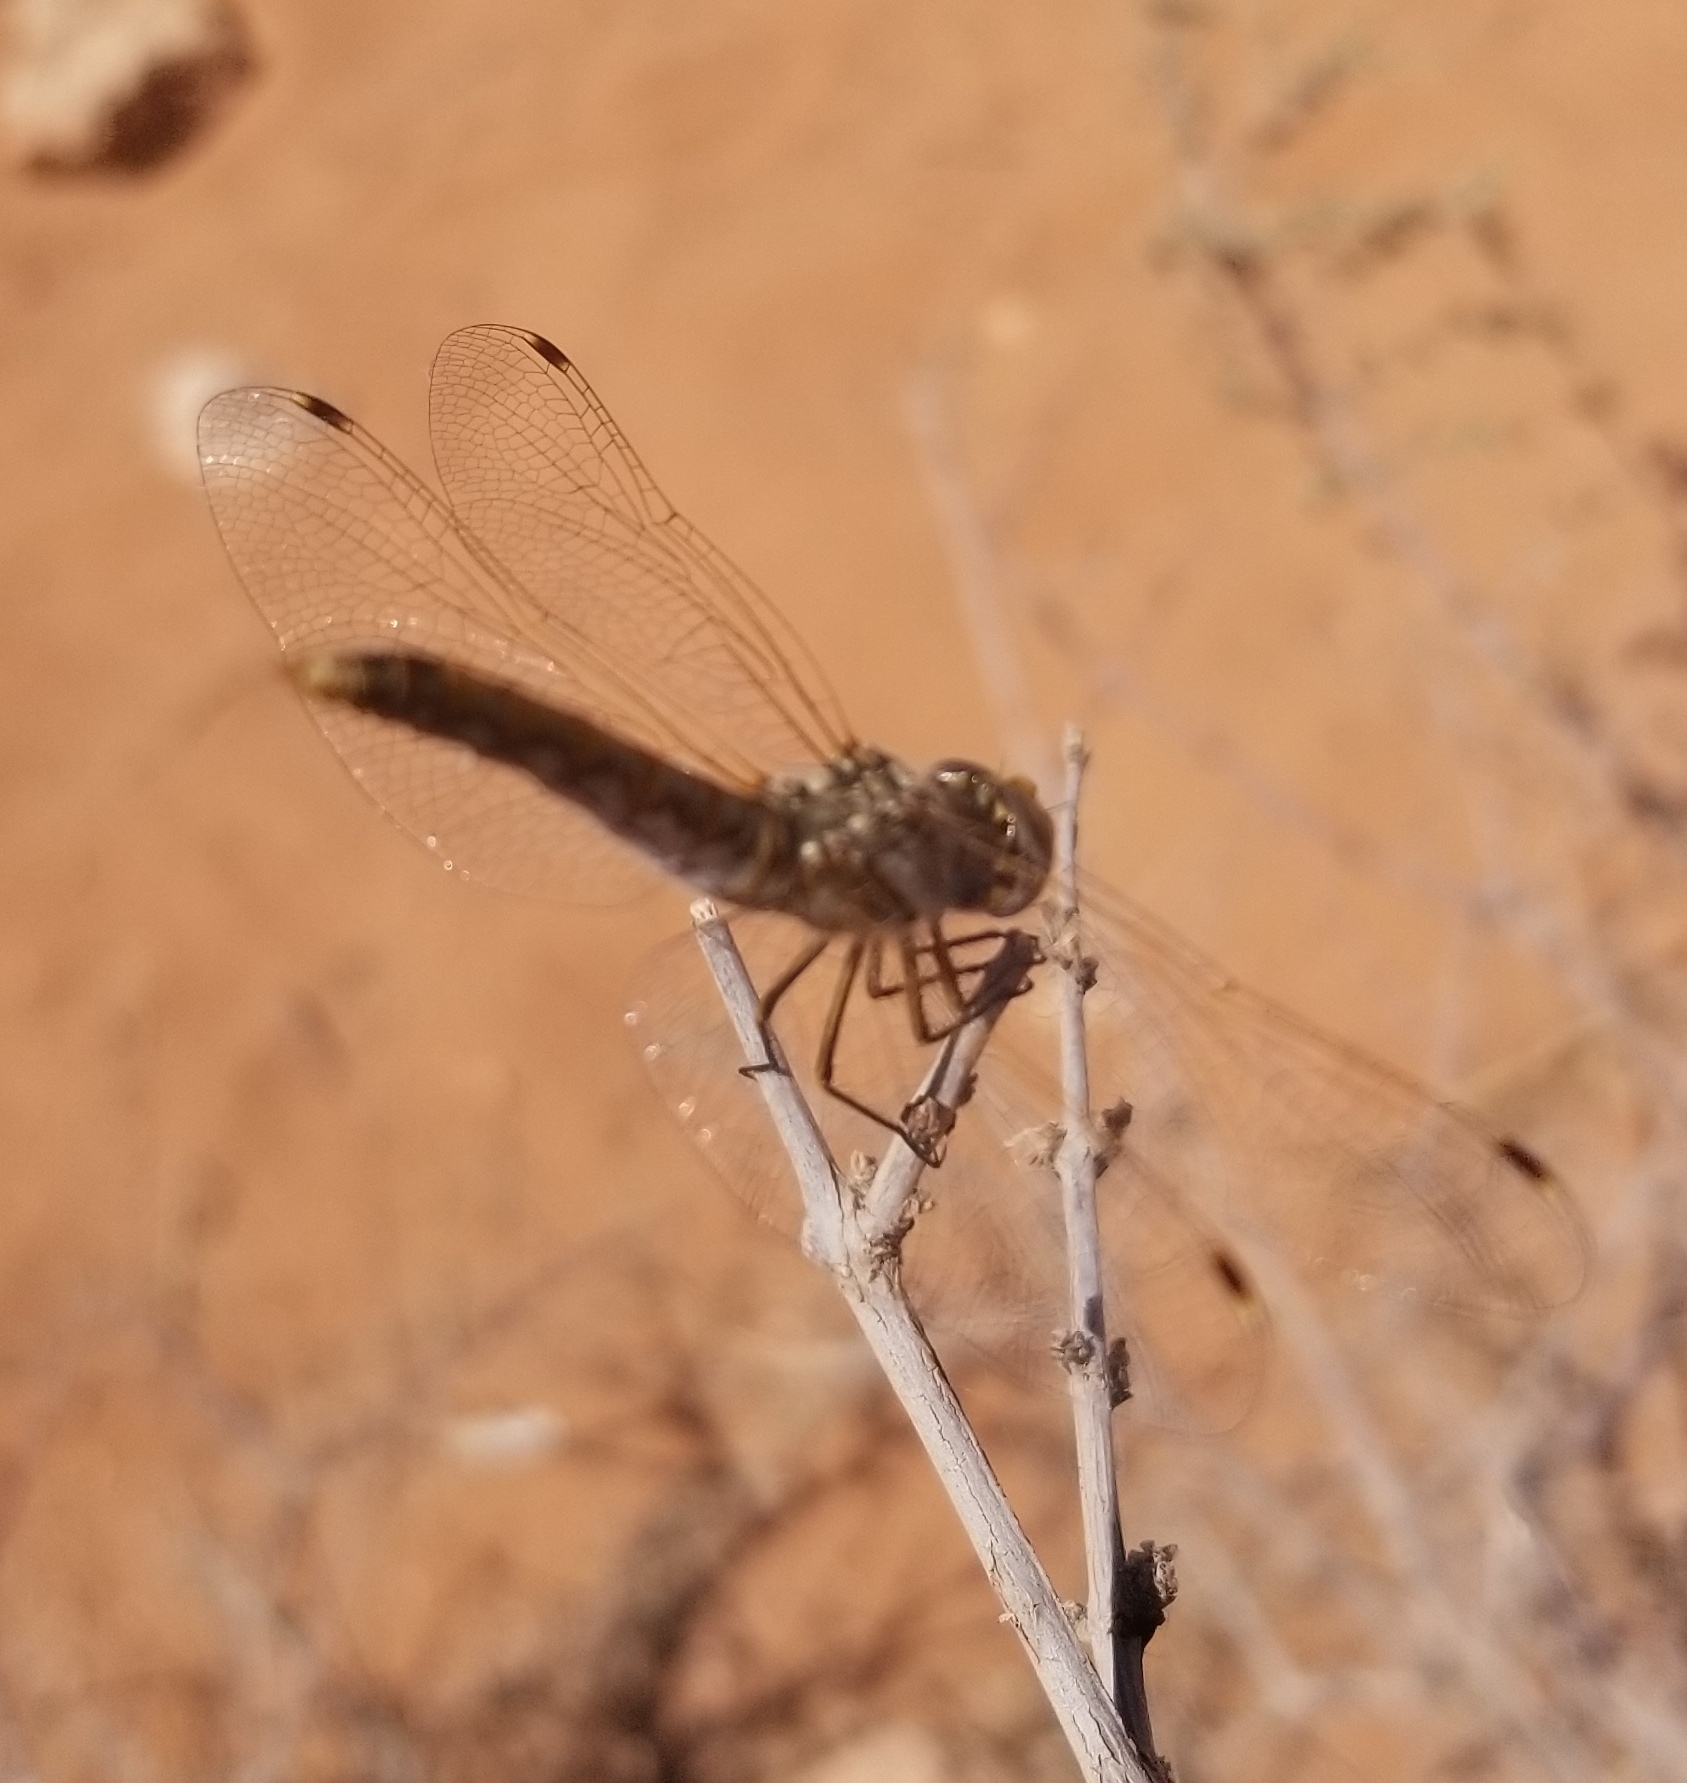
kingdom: Animalia
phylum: Arthropoda
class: Insecta
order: Odonata
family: Libellulidae
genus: Sympetrum
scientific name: Sympetrum corruptum
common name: Variegated meadowhawk
